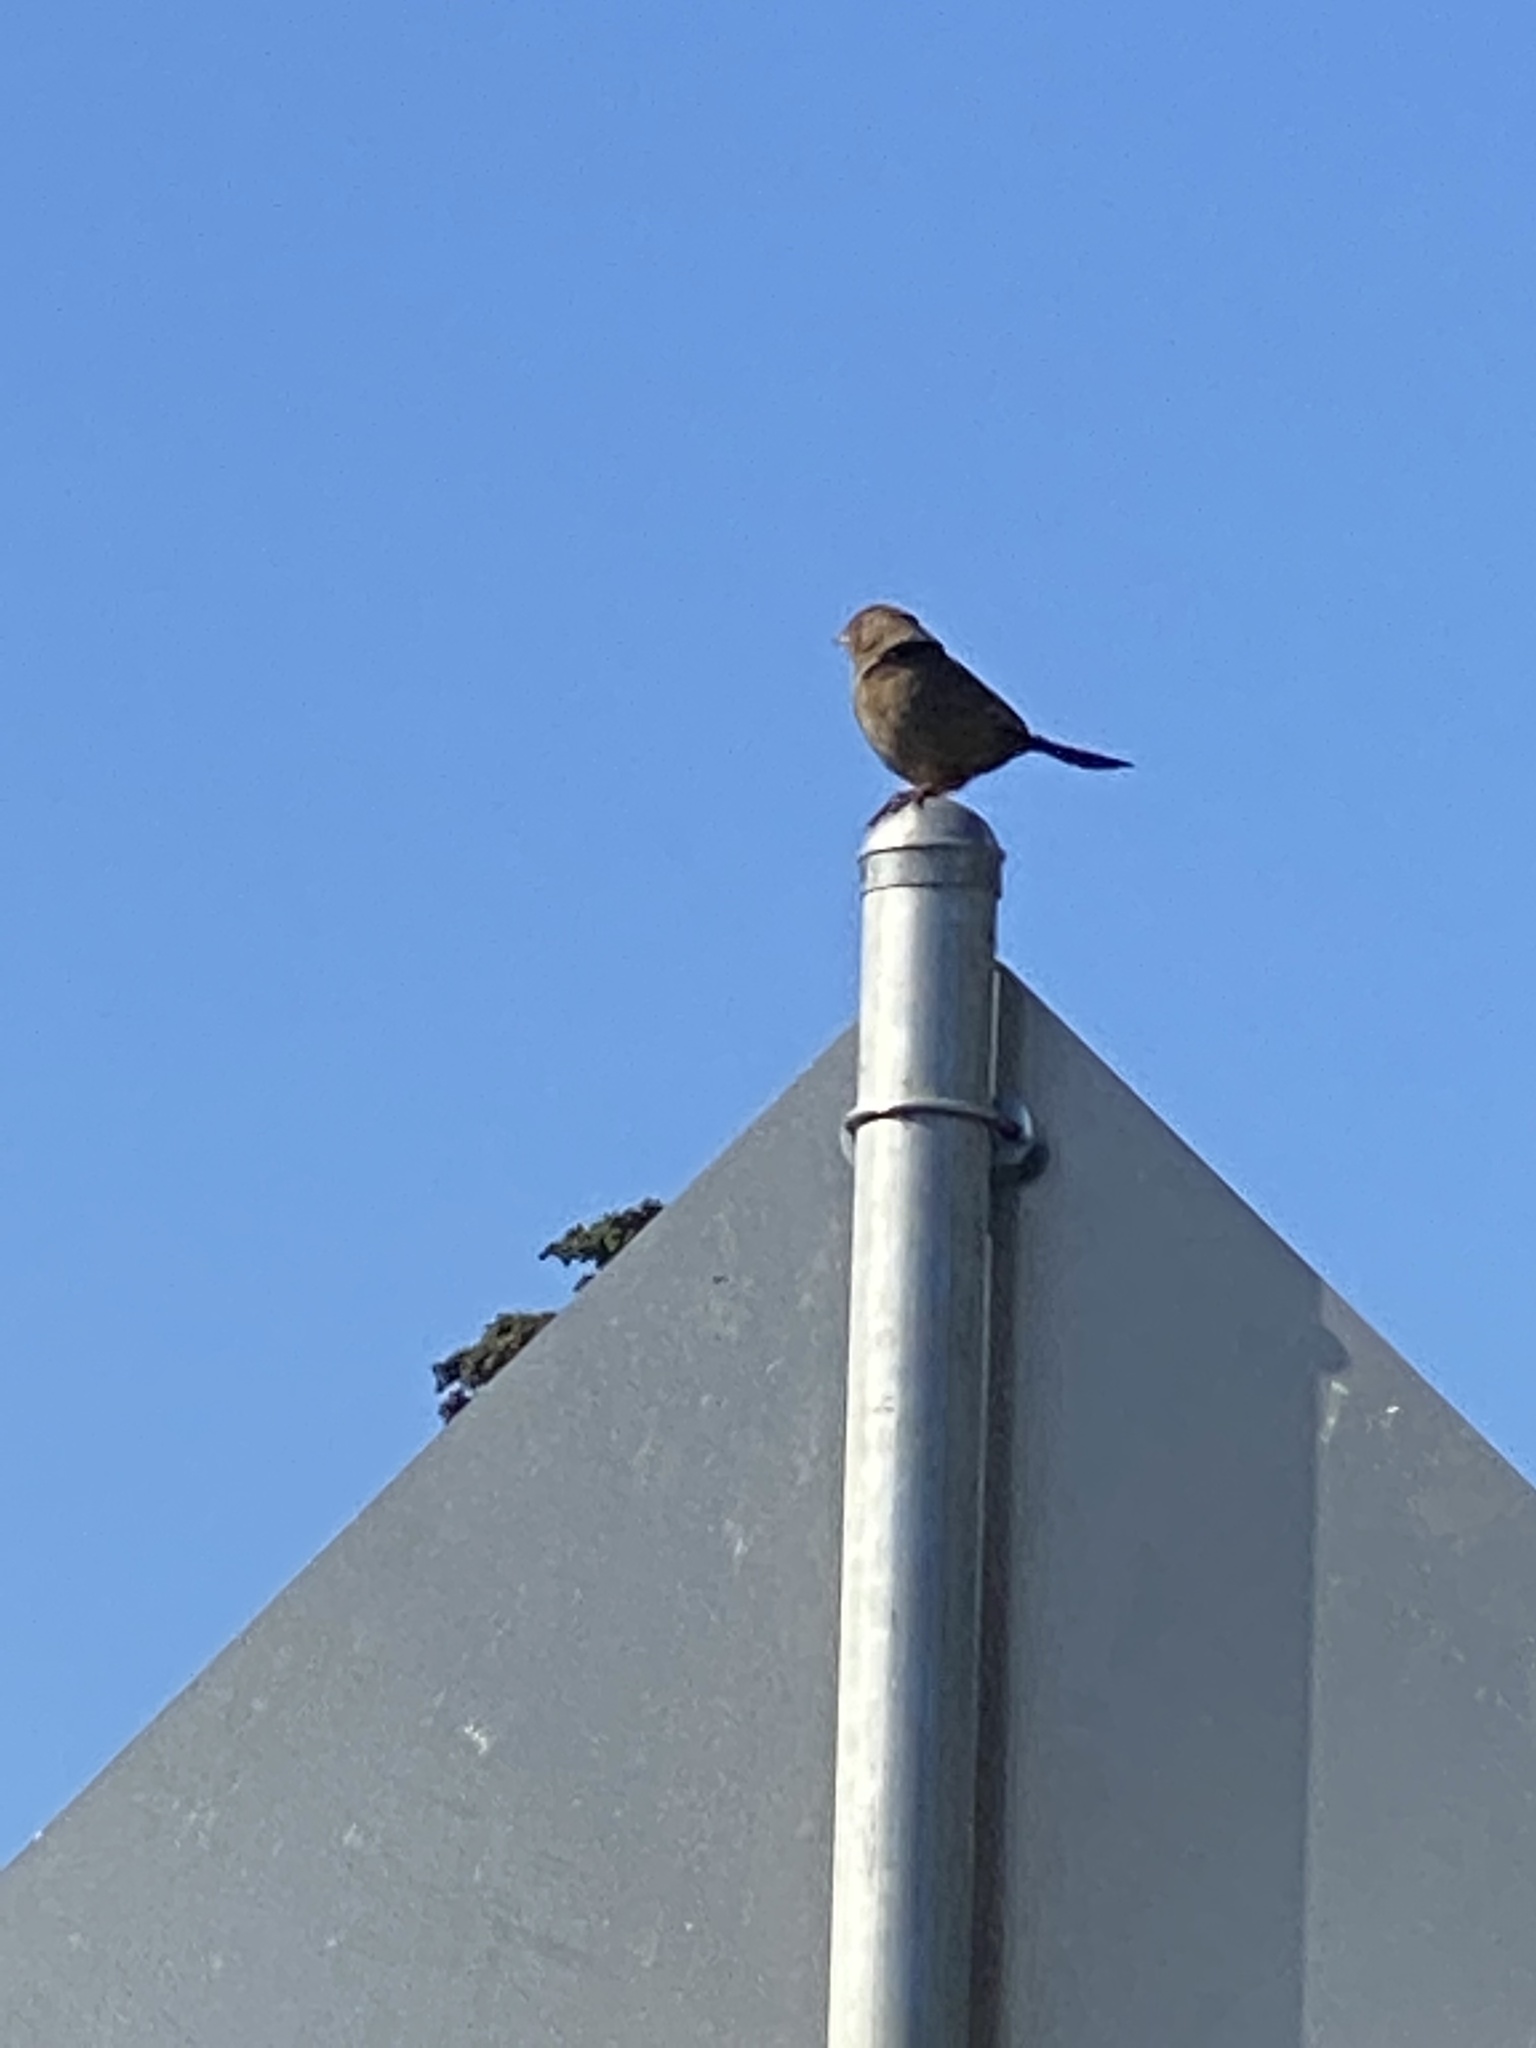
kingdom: Animalia
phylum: Chordata
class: Aves
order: Passeriformes
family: Passerellidae
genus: Melozone
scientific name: Melozone crissalis
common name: California towhee
